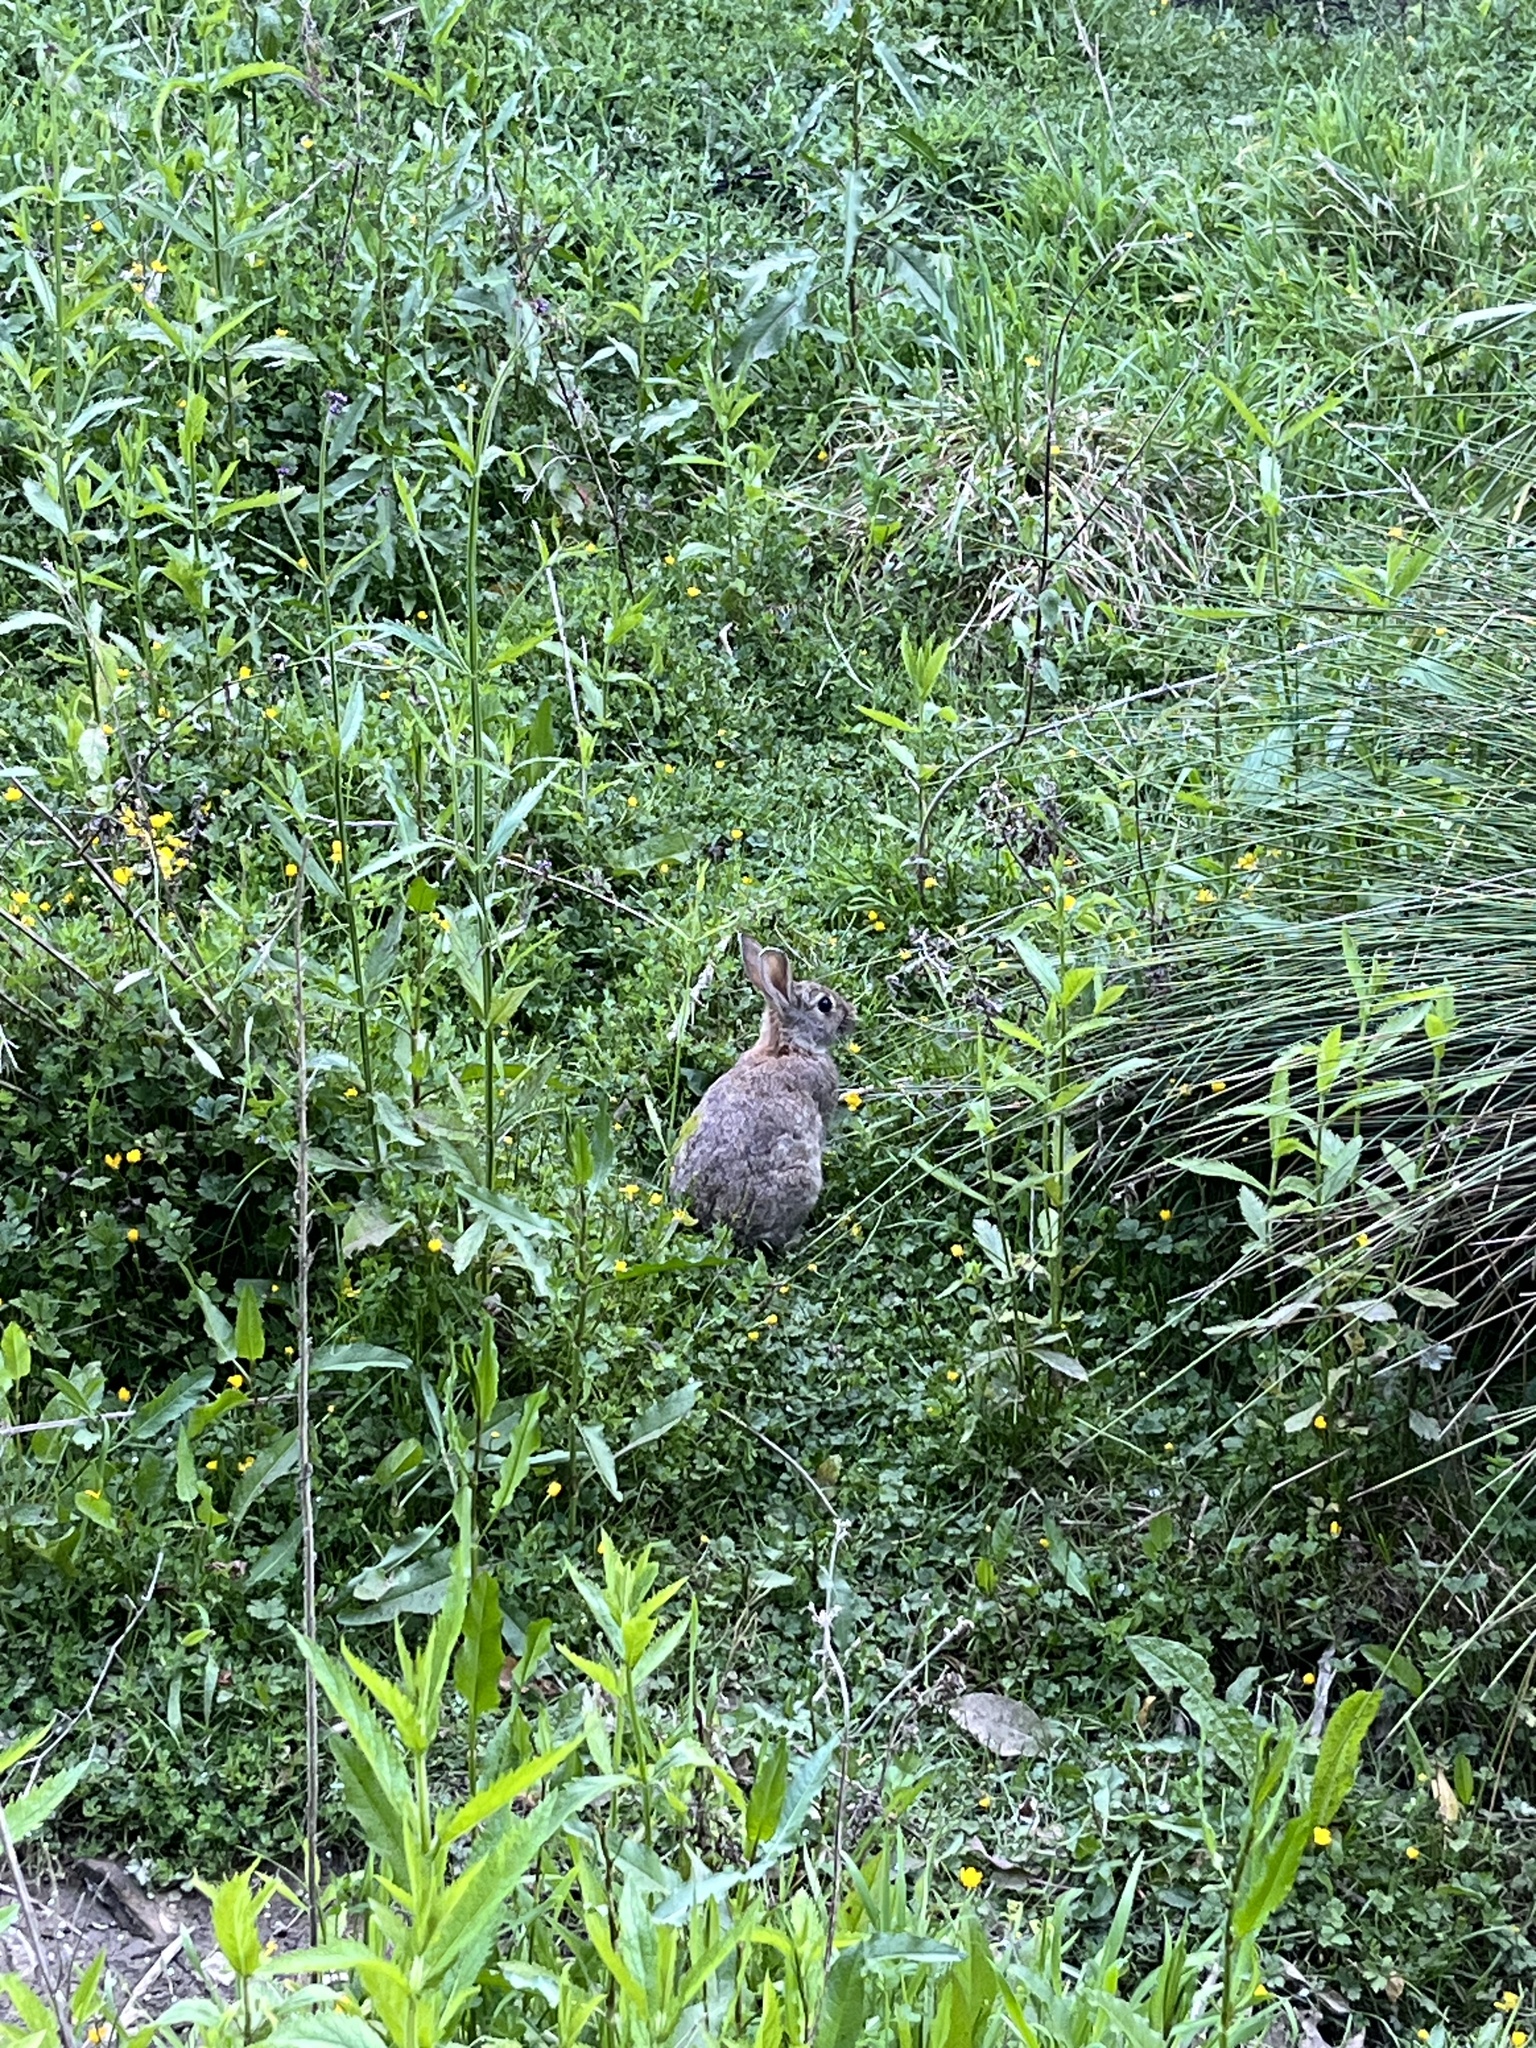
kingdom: Animalia
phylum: Chordata
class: Mammalia
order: Lagomorpha
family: Leporidae
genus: Oryctolagus
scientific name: Oryctolagus cuniculus
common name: European rabbit
